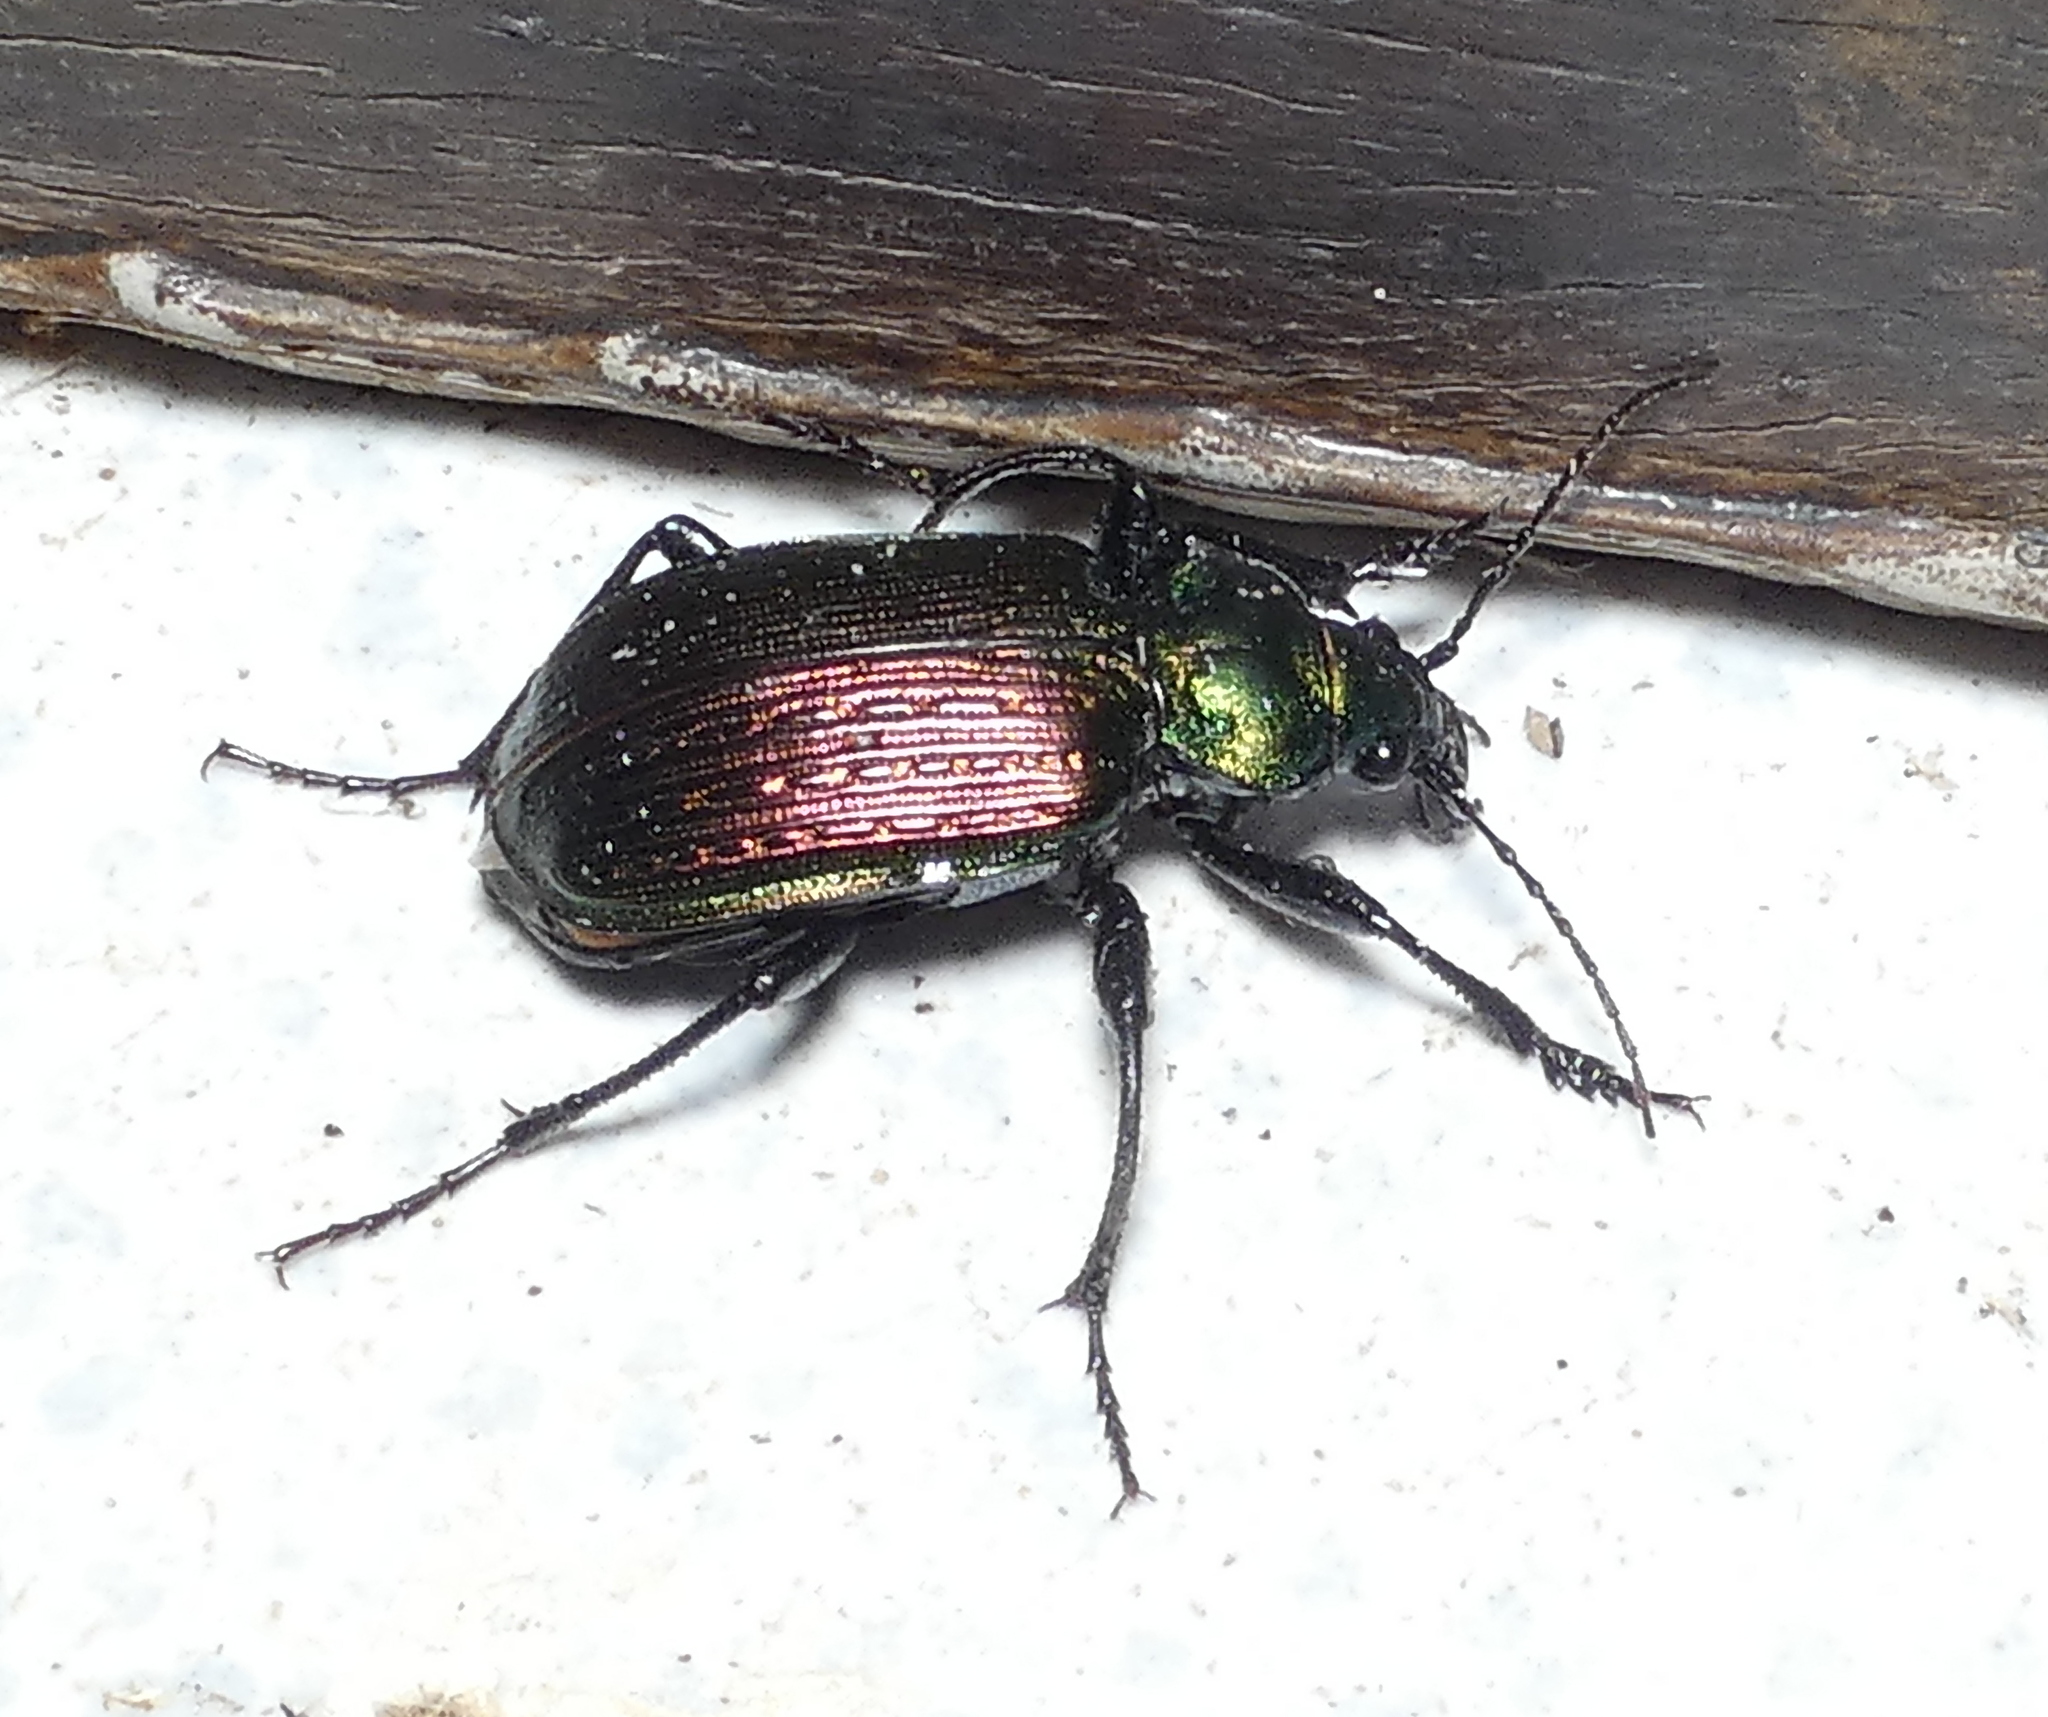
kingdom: Animalia
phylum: Arthropoda
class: Insecta
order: Coleoptera
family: Carabidae
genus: Calosoma
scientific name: Calosoma alternans
